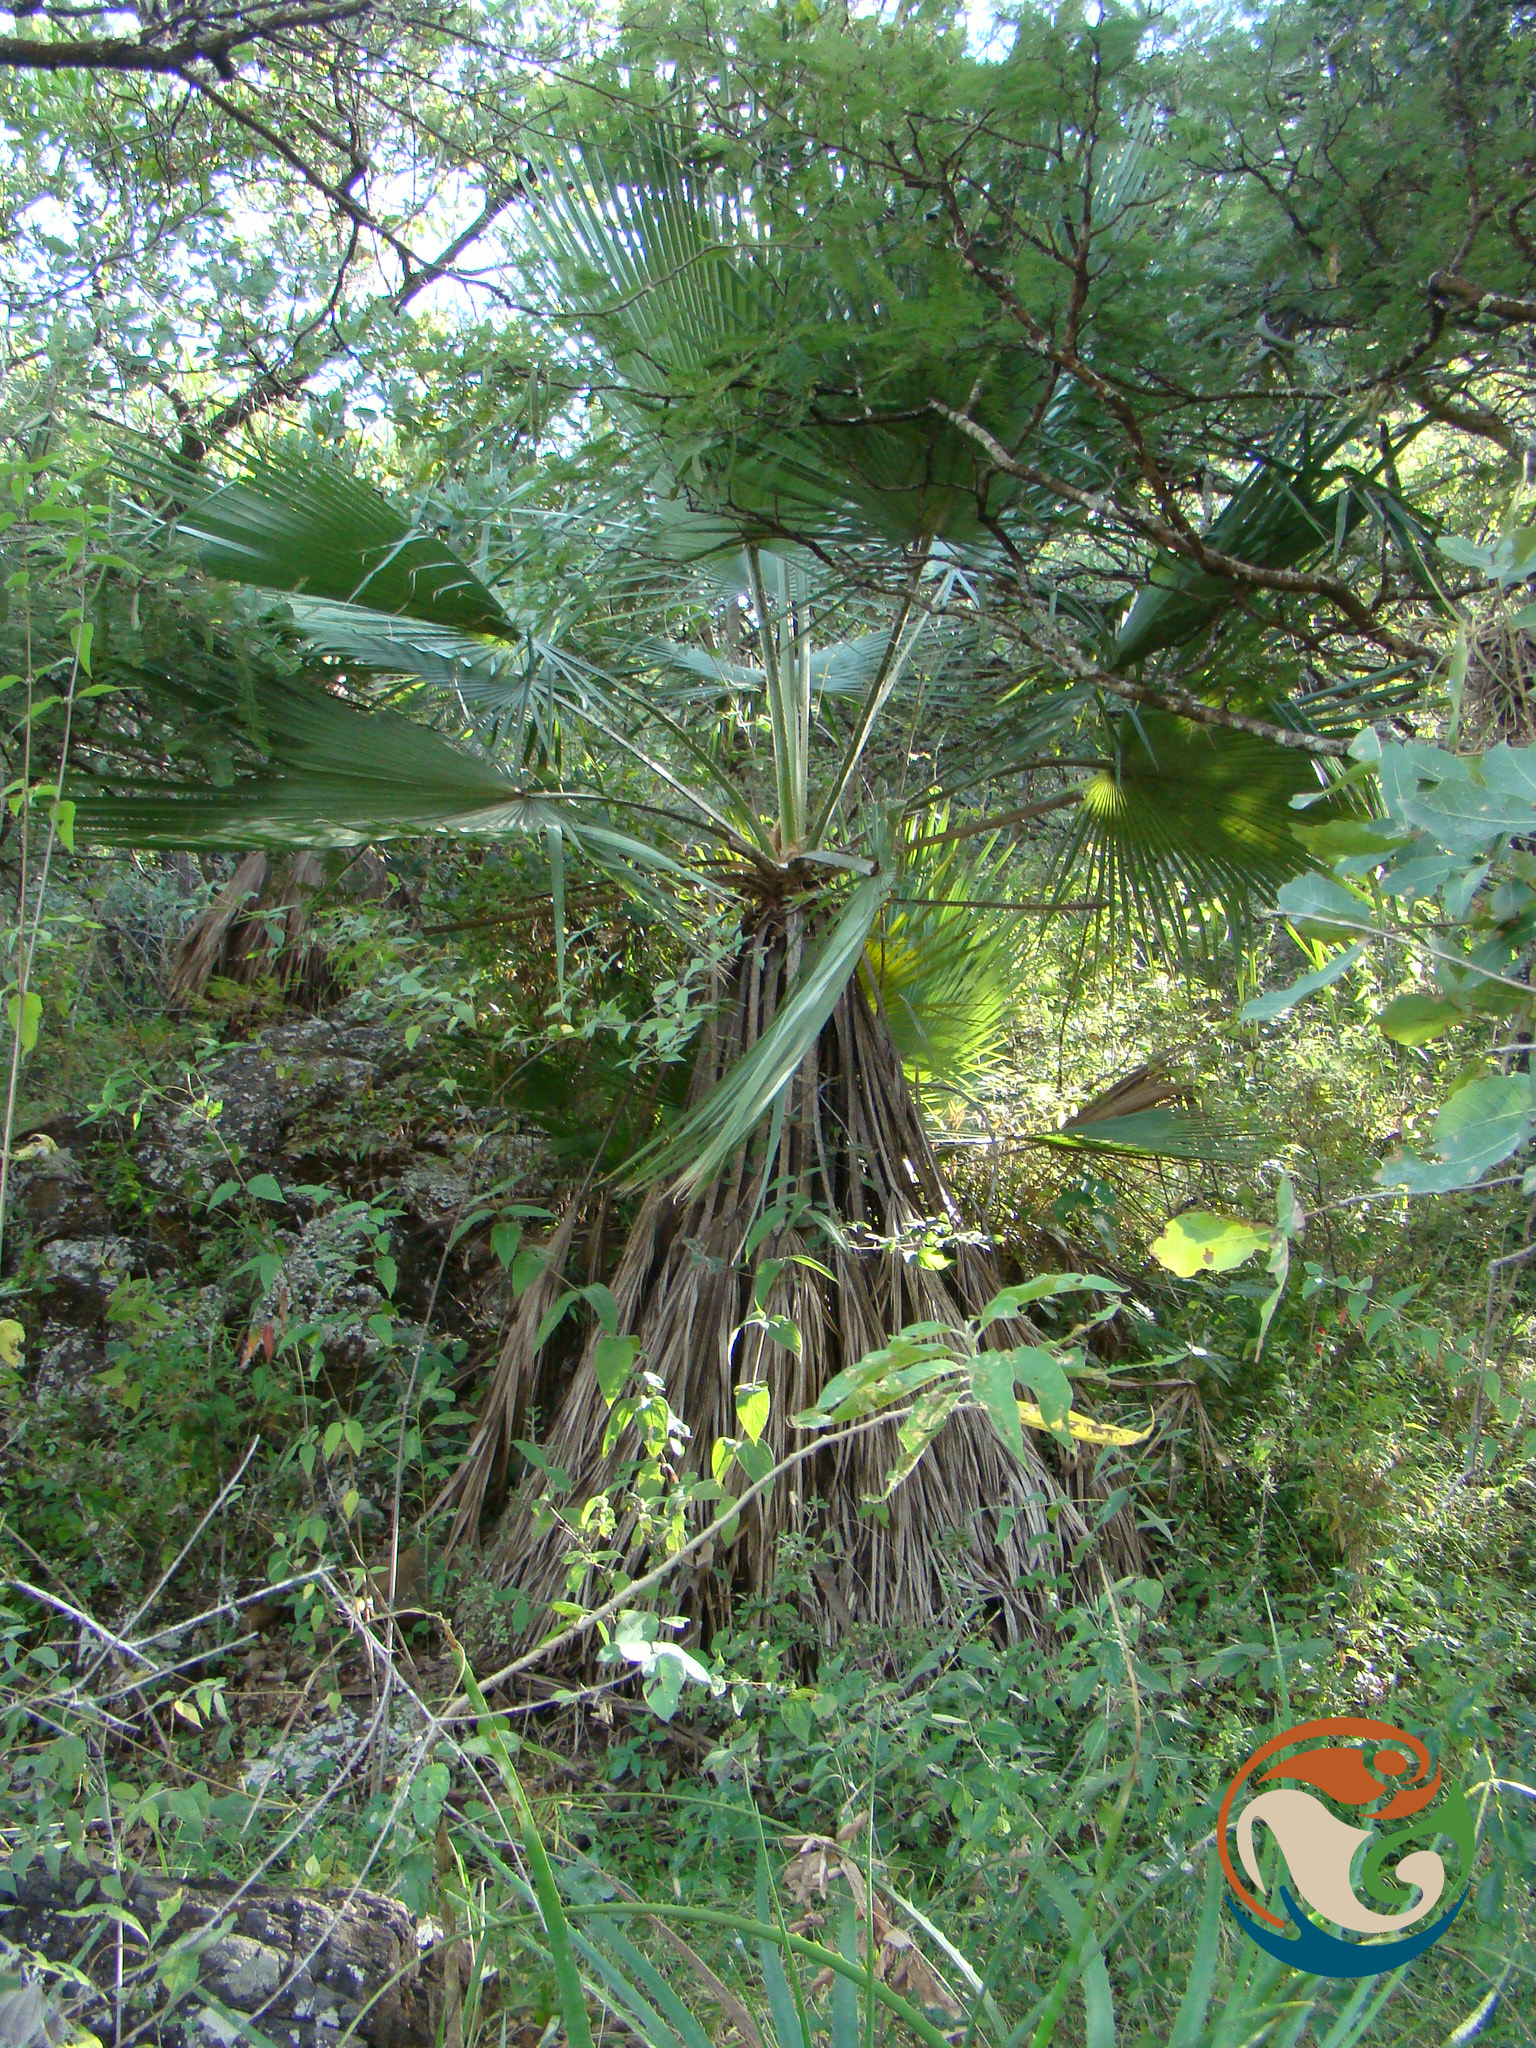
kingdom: Plantae
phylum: Tracheophyta
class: Liliopsida
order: Arecales
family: Arecaceae
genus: Brahea
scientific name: Brahea dulcis
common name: Apak palm
